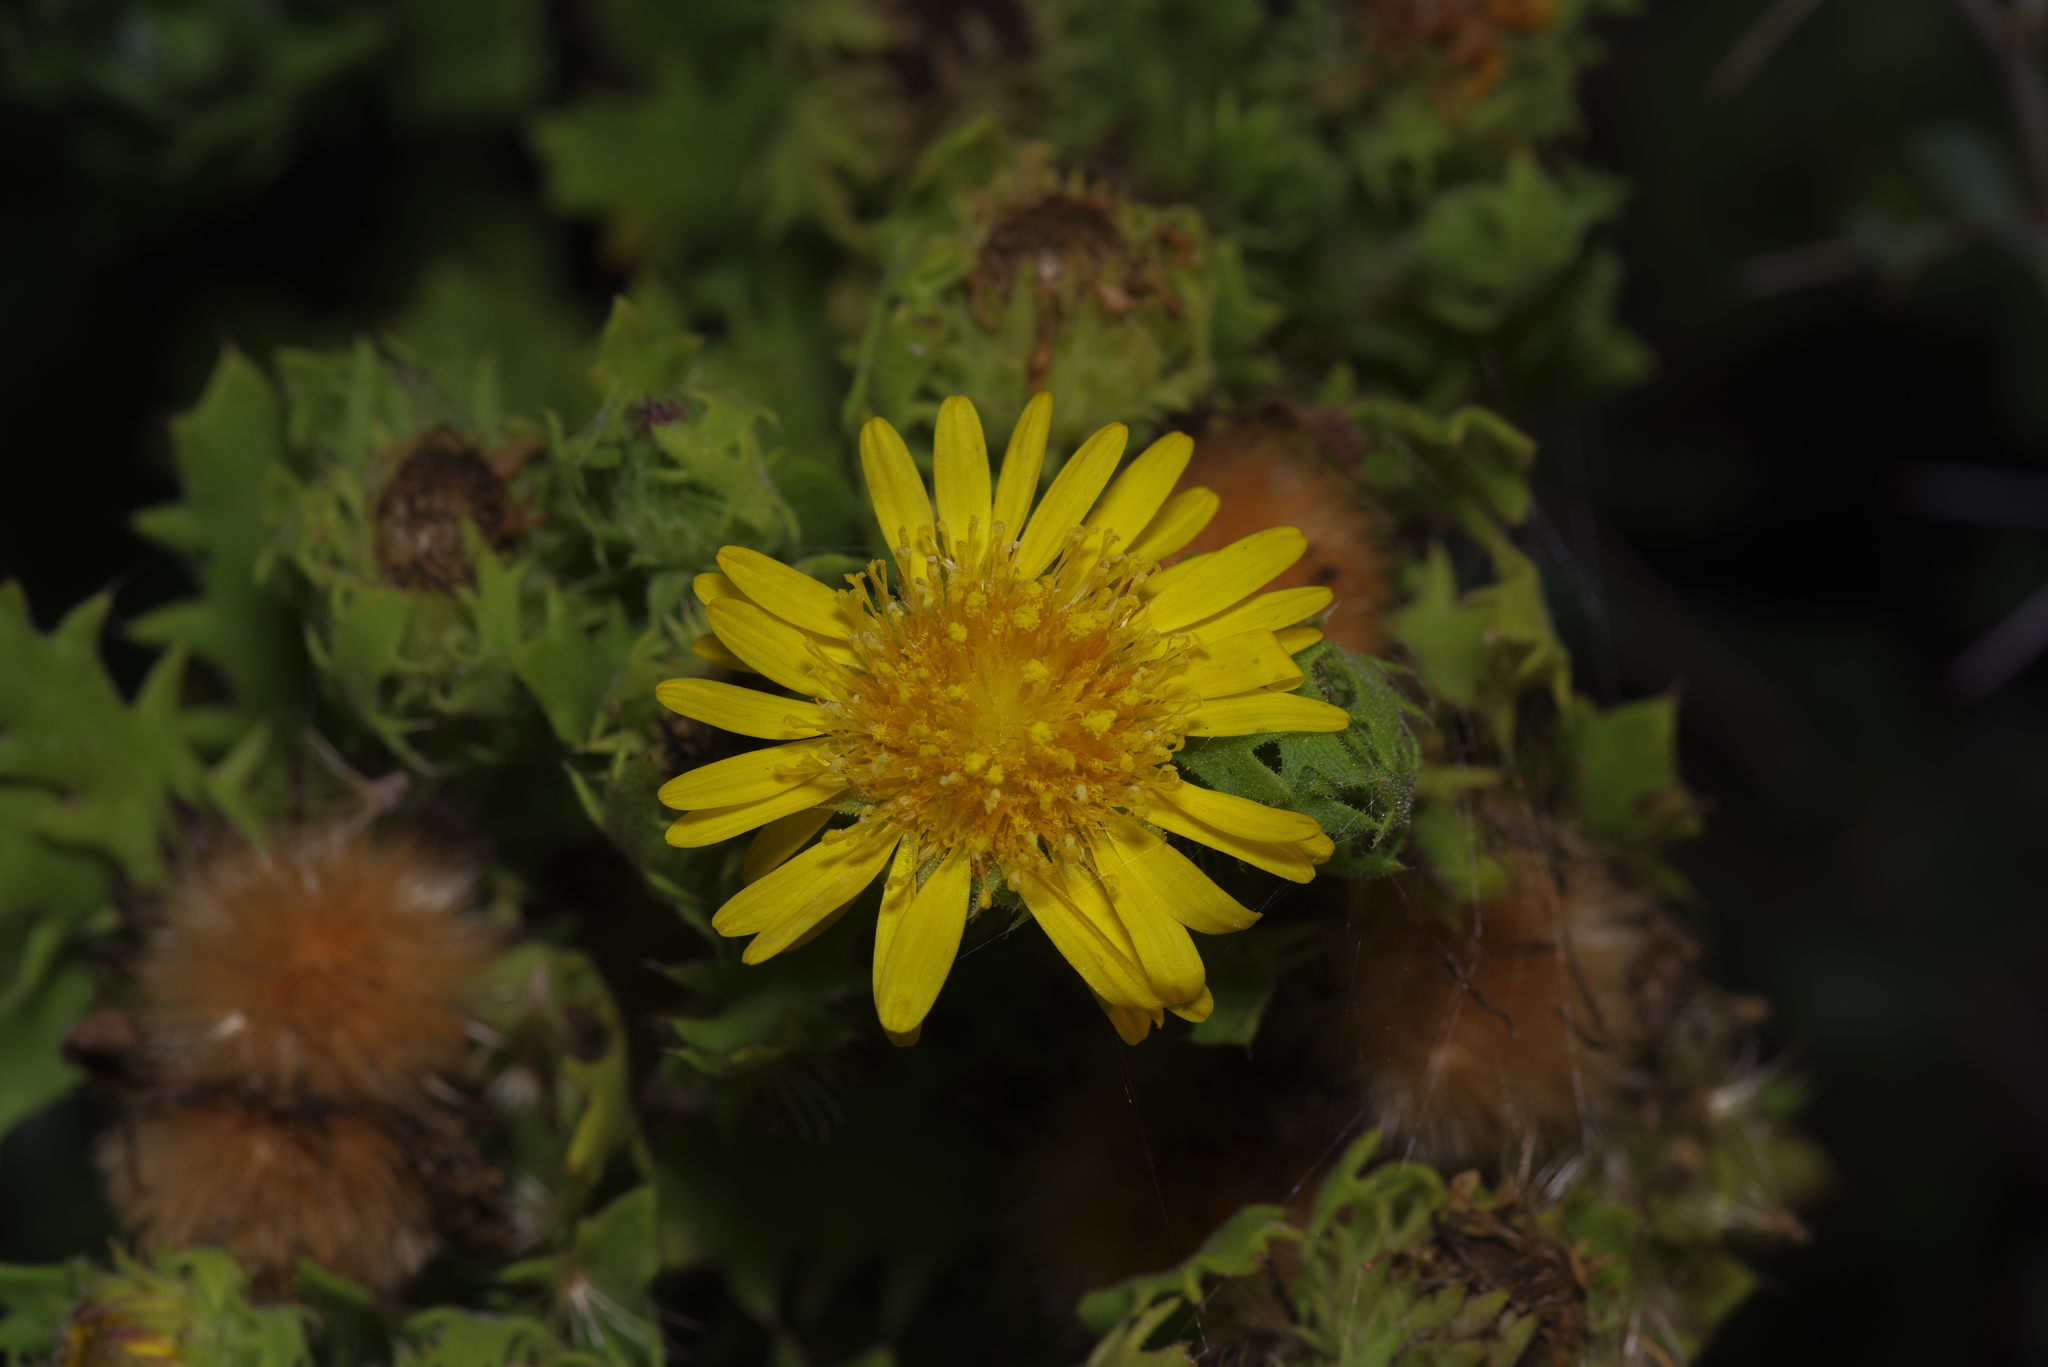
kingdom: Plantae
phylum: Tracheophyta
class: Magnoliopsida
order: Asterales
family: Asteraceae
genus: Rayjacksonia
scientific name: Rayjacksonia phyllocephala
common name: Gulf coast camphor daisy
